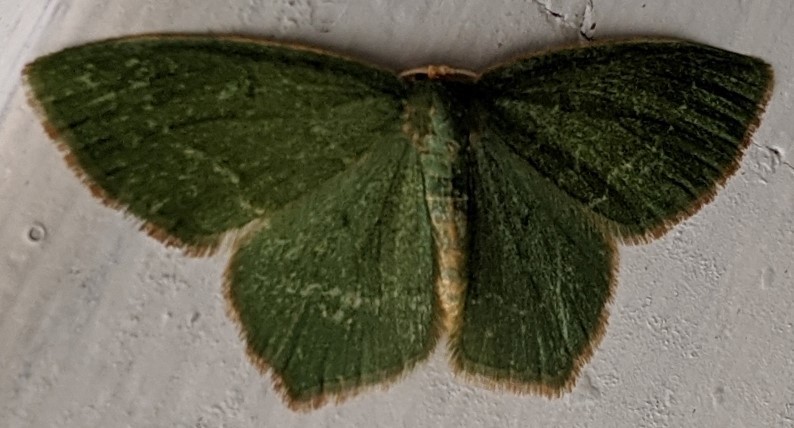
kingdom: Animalia
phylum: Arthropoda
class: Insecta
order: Lepidoptera
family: Geometridae
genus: Thalera
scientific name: Thalera pistasciaria
